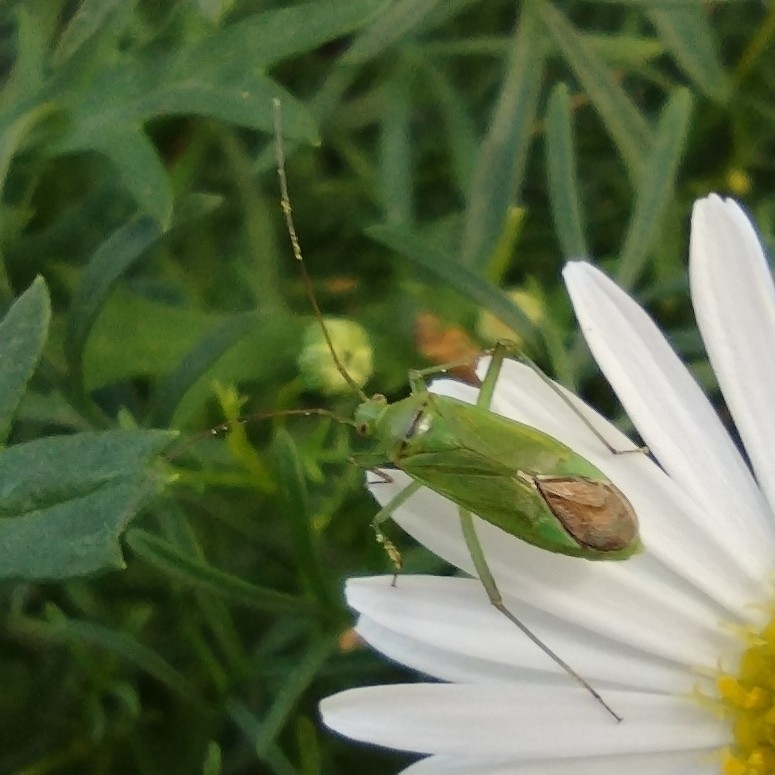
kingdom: Animalia
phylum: Arthropoda
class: Insecta
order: Hemiptera
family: Miridae
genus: Calocoris
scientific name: Calocoris affinis
